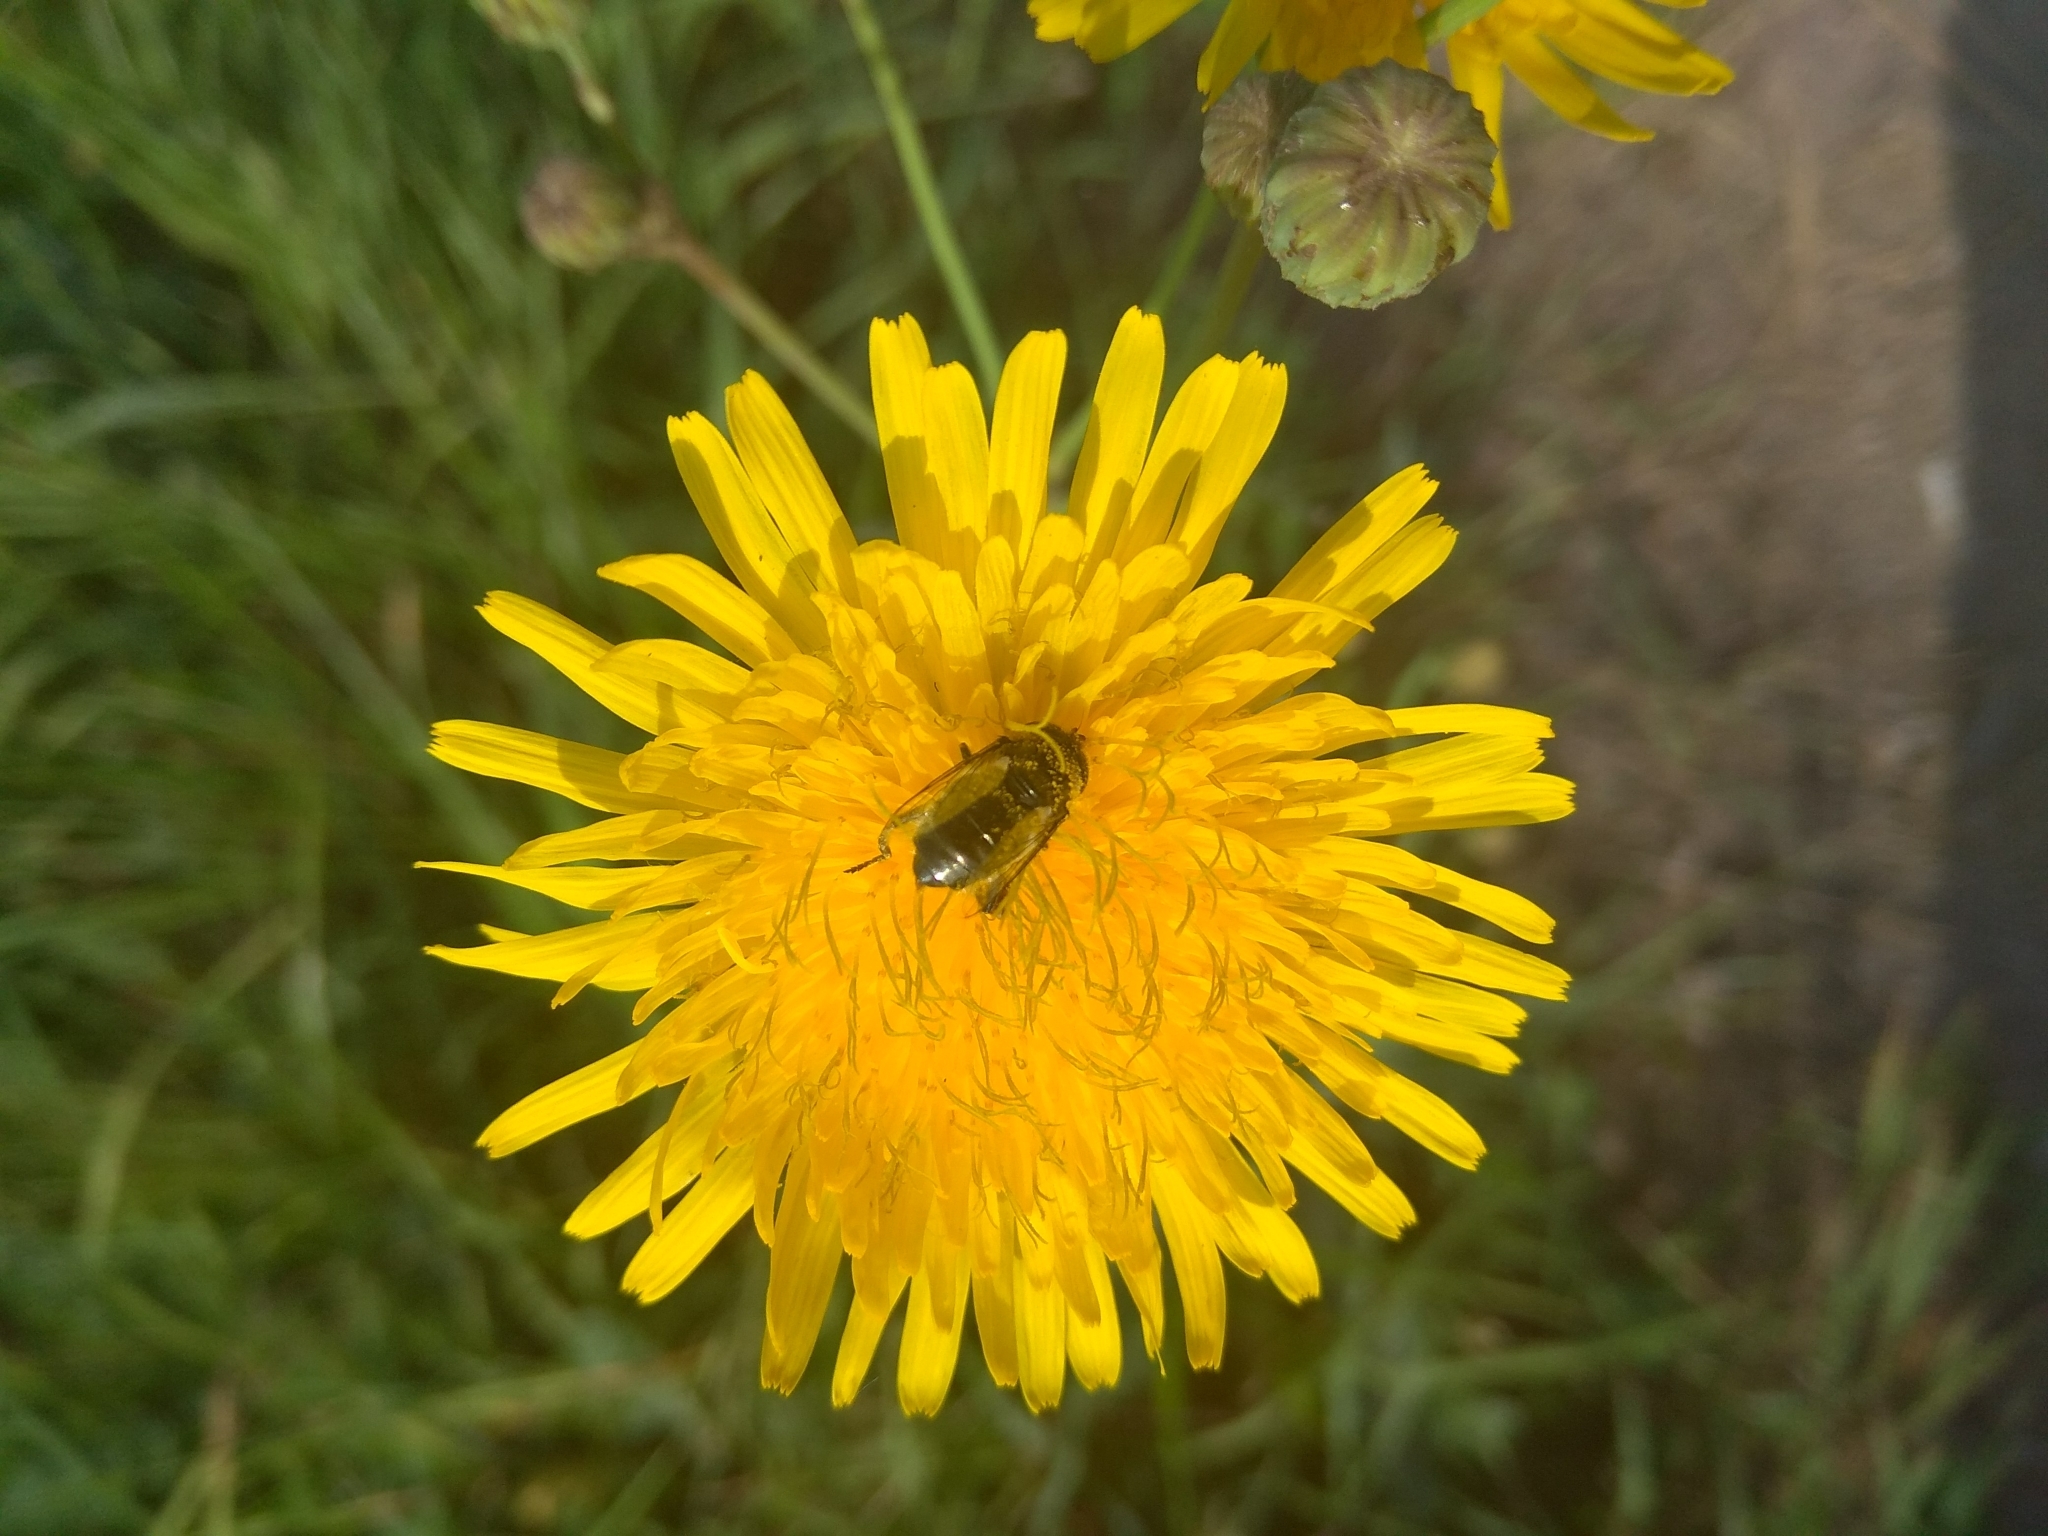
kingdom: Animalia
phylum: Arthropoda
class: Insecta
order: Diptera
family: Syrphidae
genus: Eristalinus
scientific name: Eristalinus aeneus
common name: Syrphid fly
